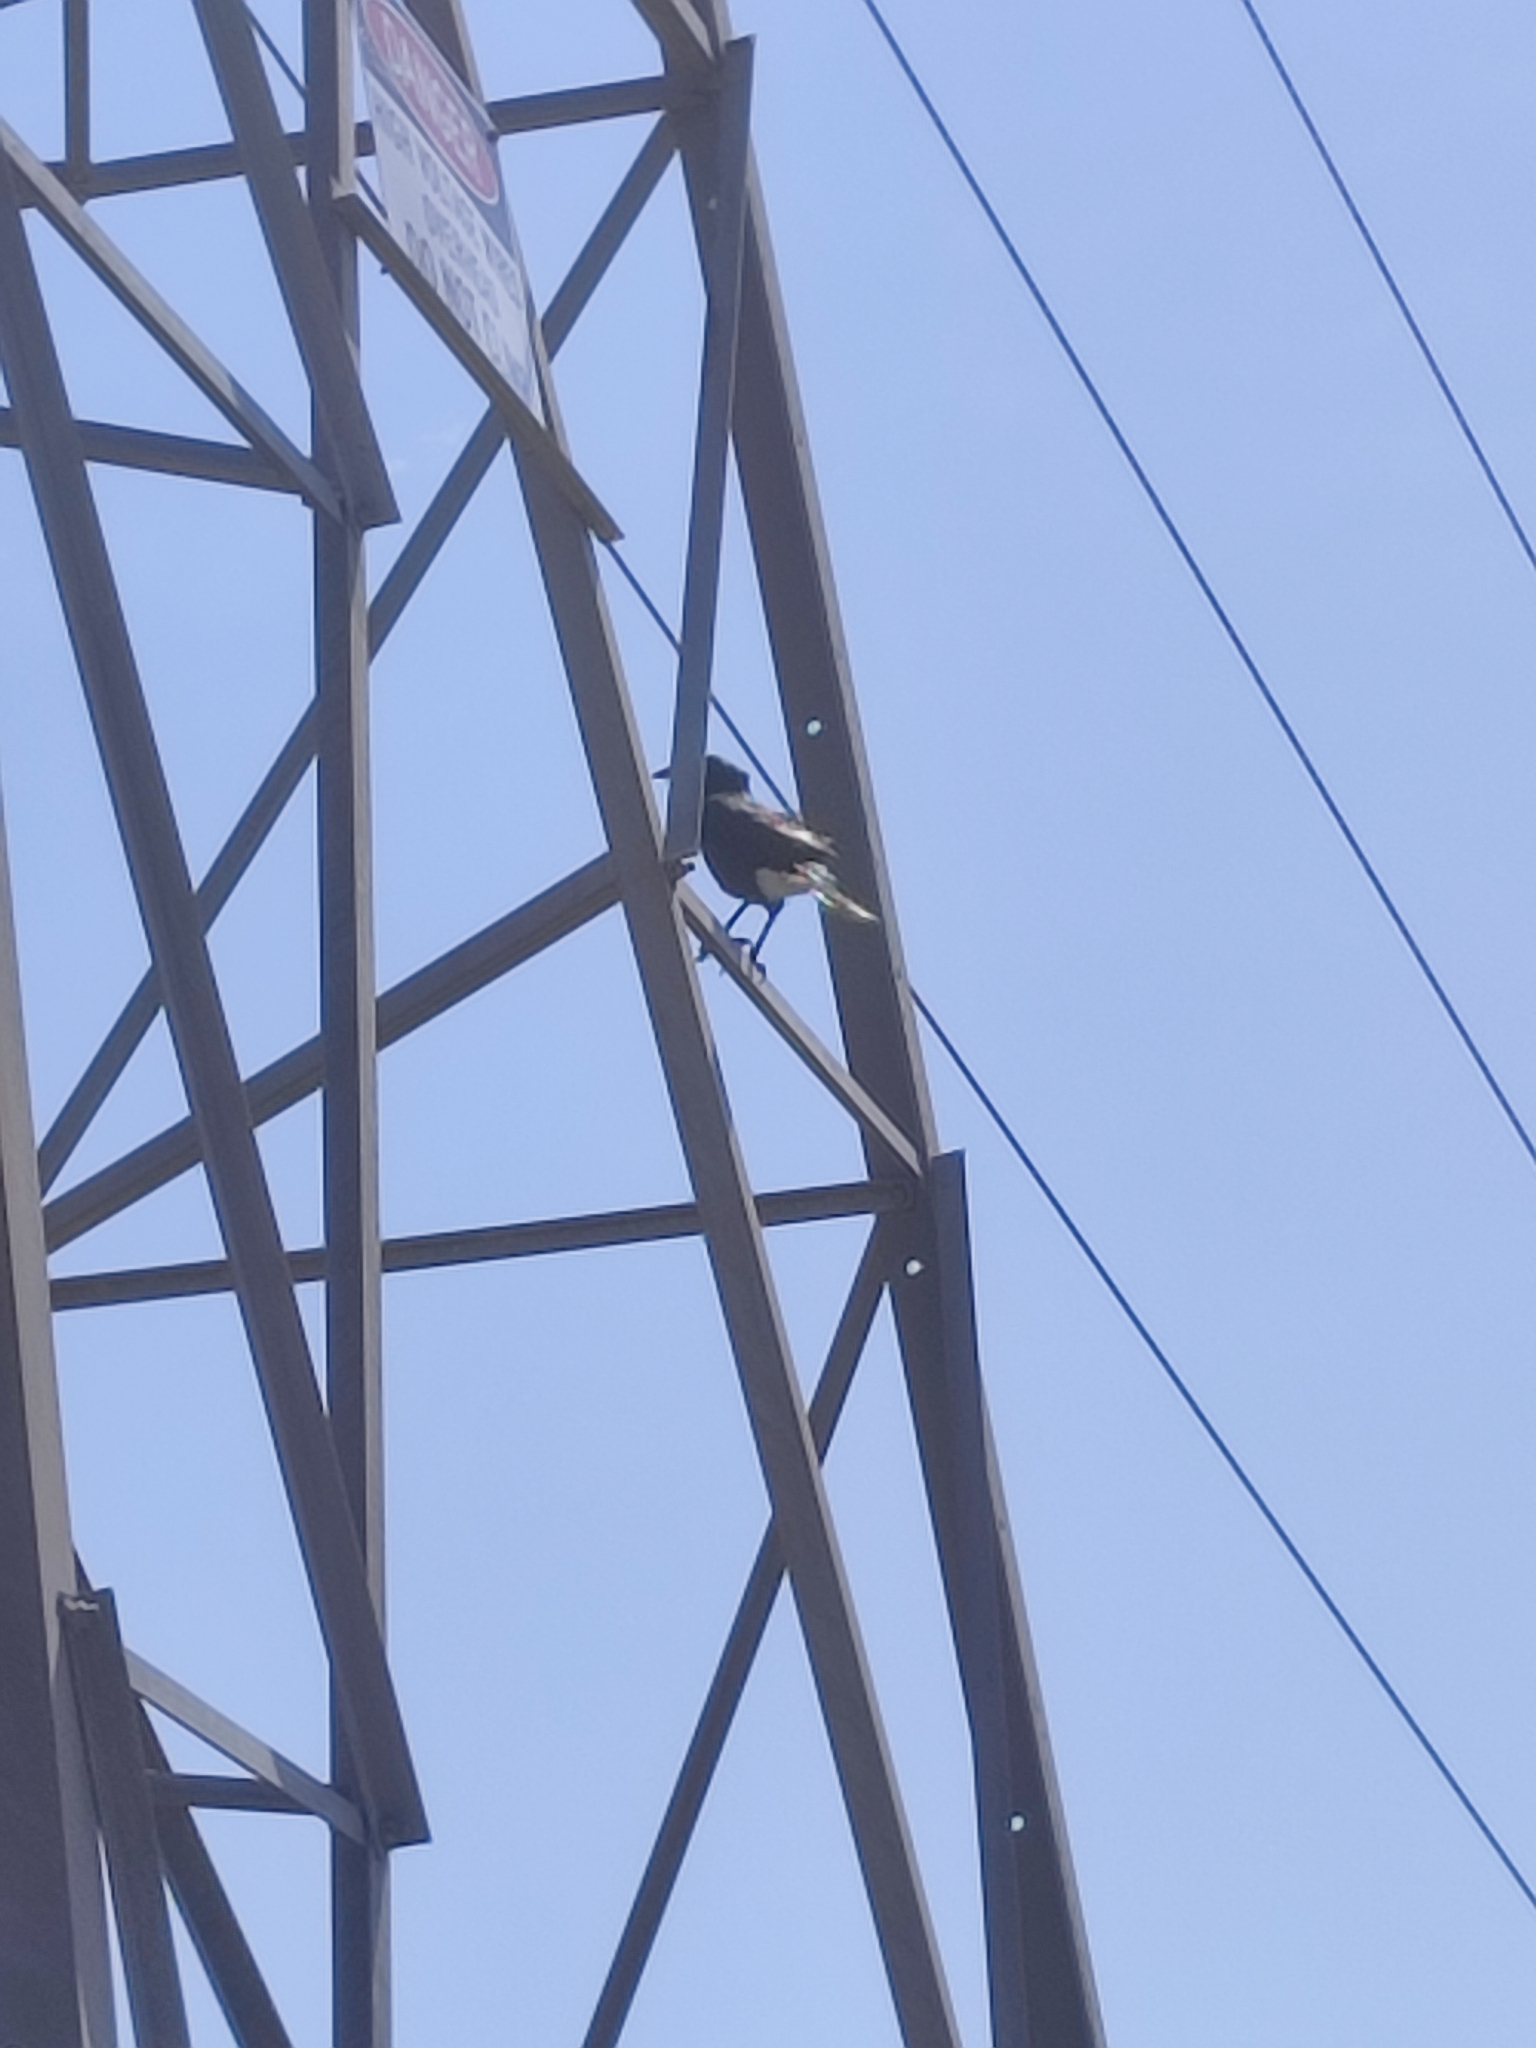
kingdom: Animalia
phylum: Chordata
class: Aves
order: Passeriformes
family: Cracticidae
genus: Strepera
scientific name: Strepera versicolor
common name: Grey currawong
